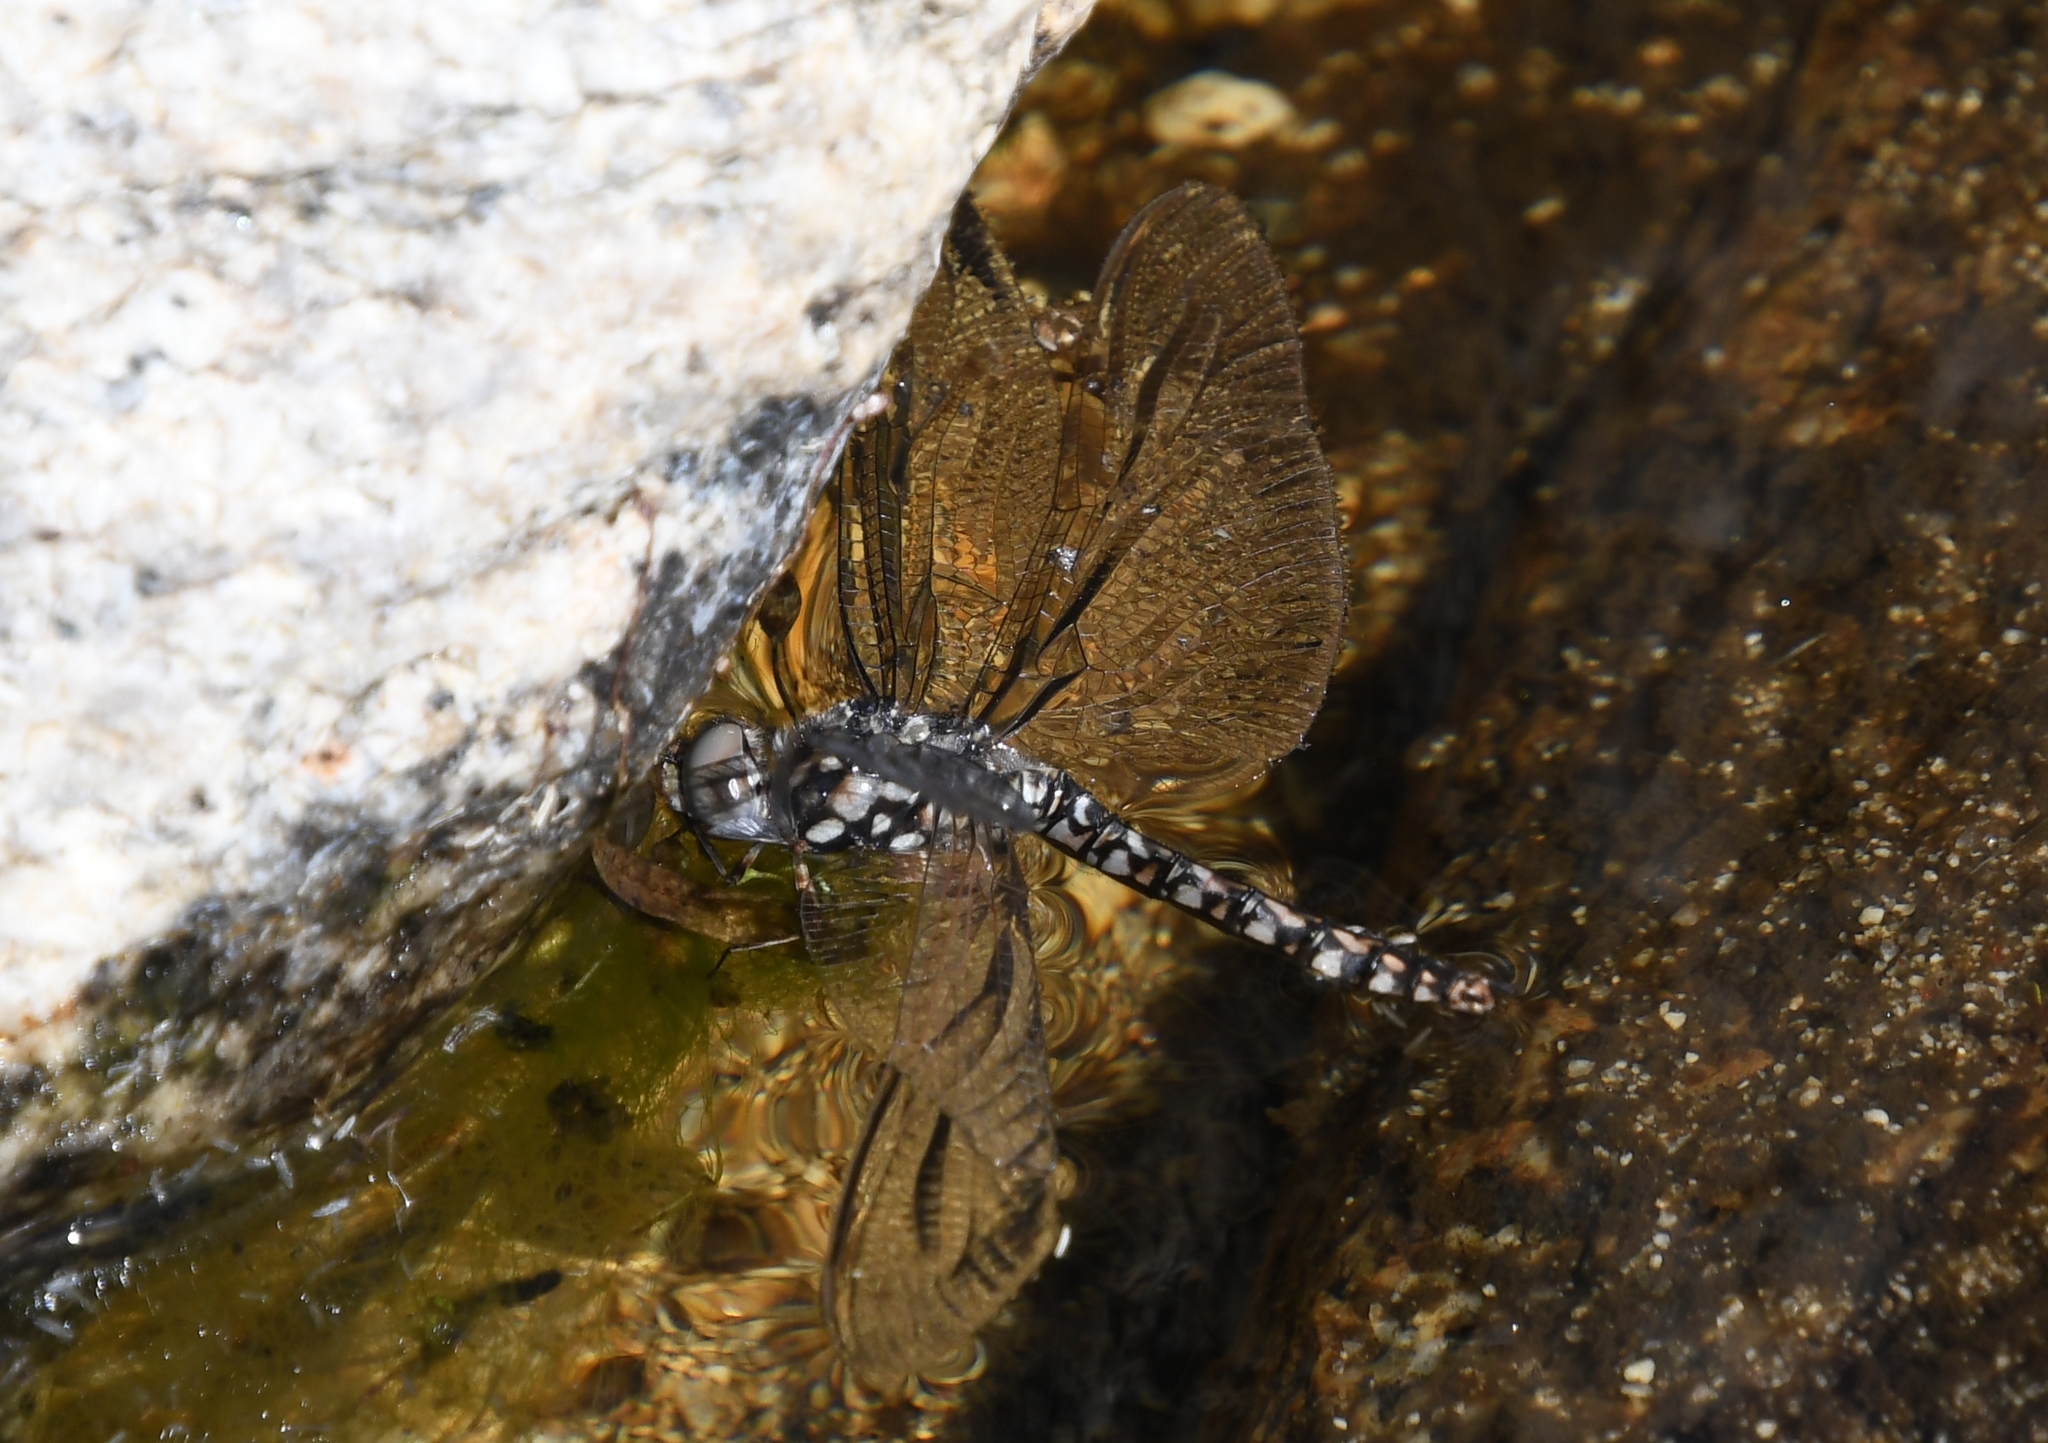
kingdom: Animalia
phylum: Arthropoda
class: Insecta
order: Odonata
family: Libellulidae
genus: Paltothemis
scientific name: Paltothemis lineatipes
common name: Red rock skimmer
